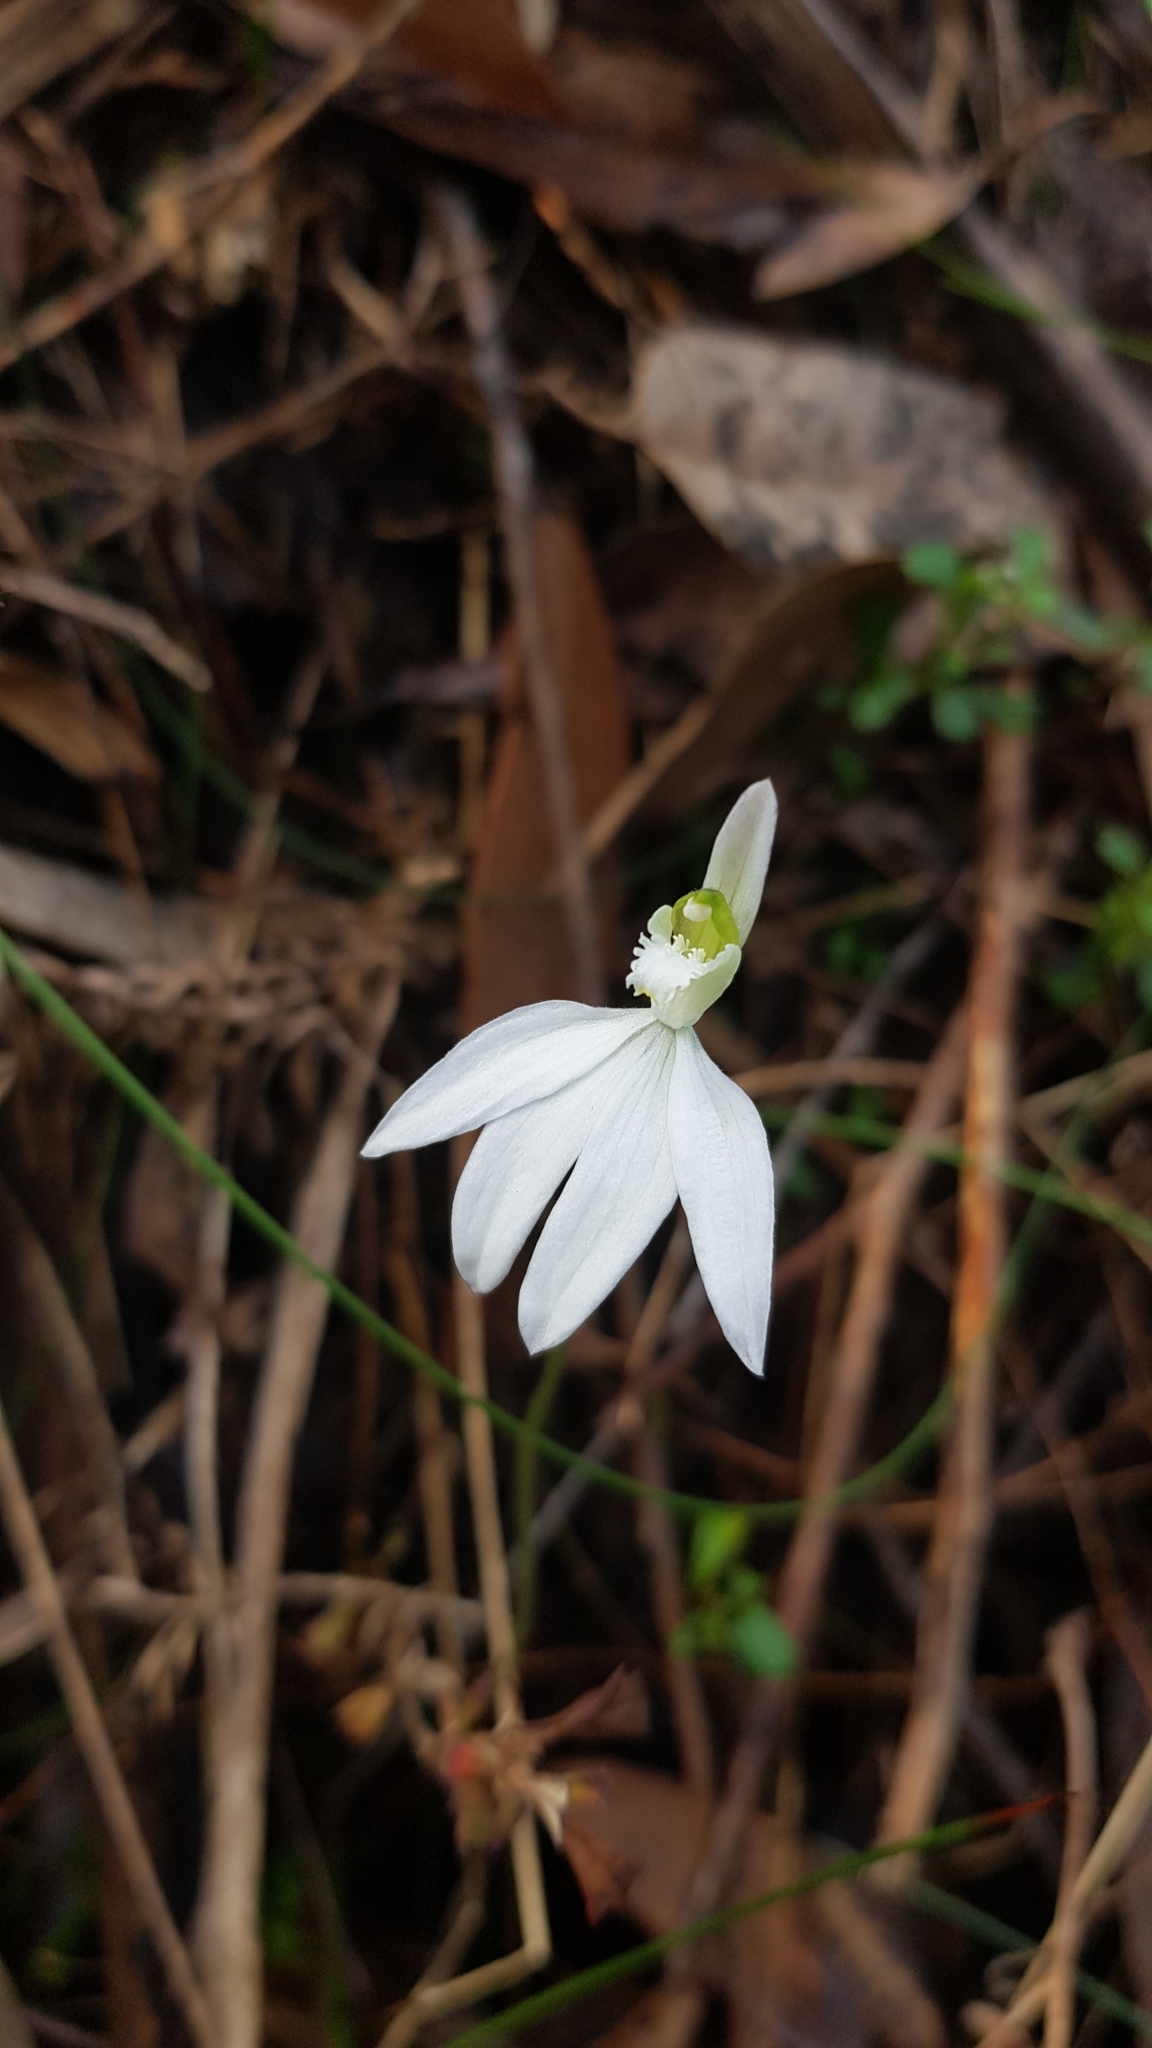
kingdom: Plantae
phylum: Tracheophyta
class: Liliopsida
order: Asparagales
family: Orchidaceae
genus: Caladenia
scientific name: Caladenia catenata
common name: White caladenia
